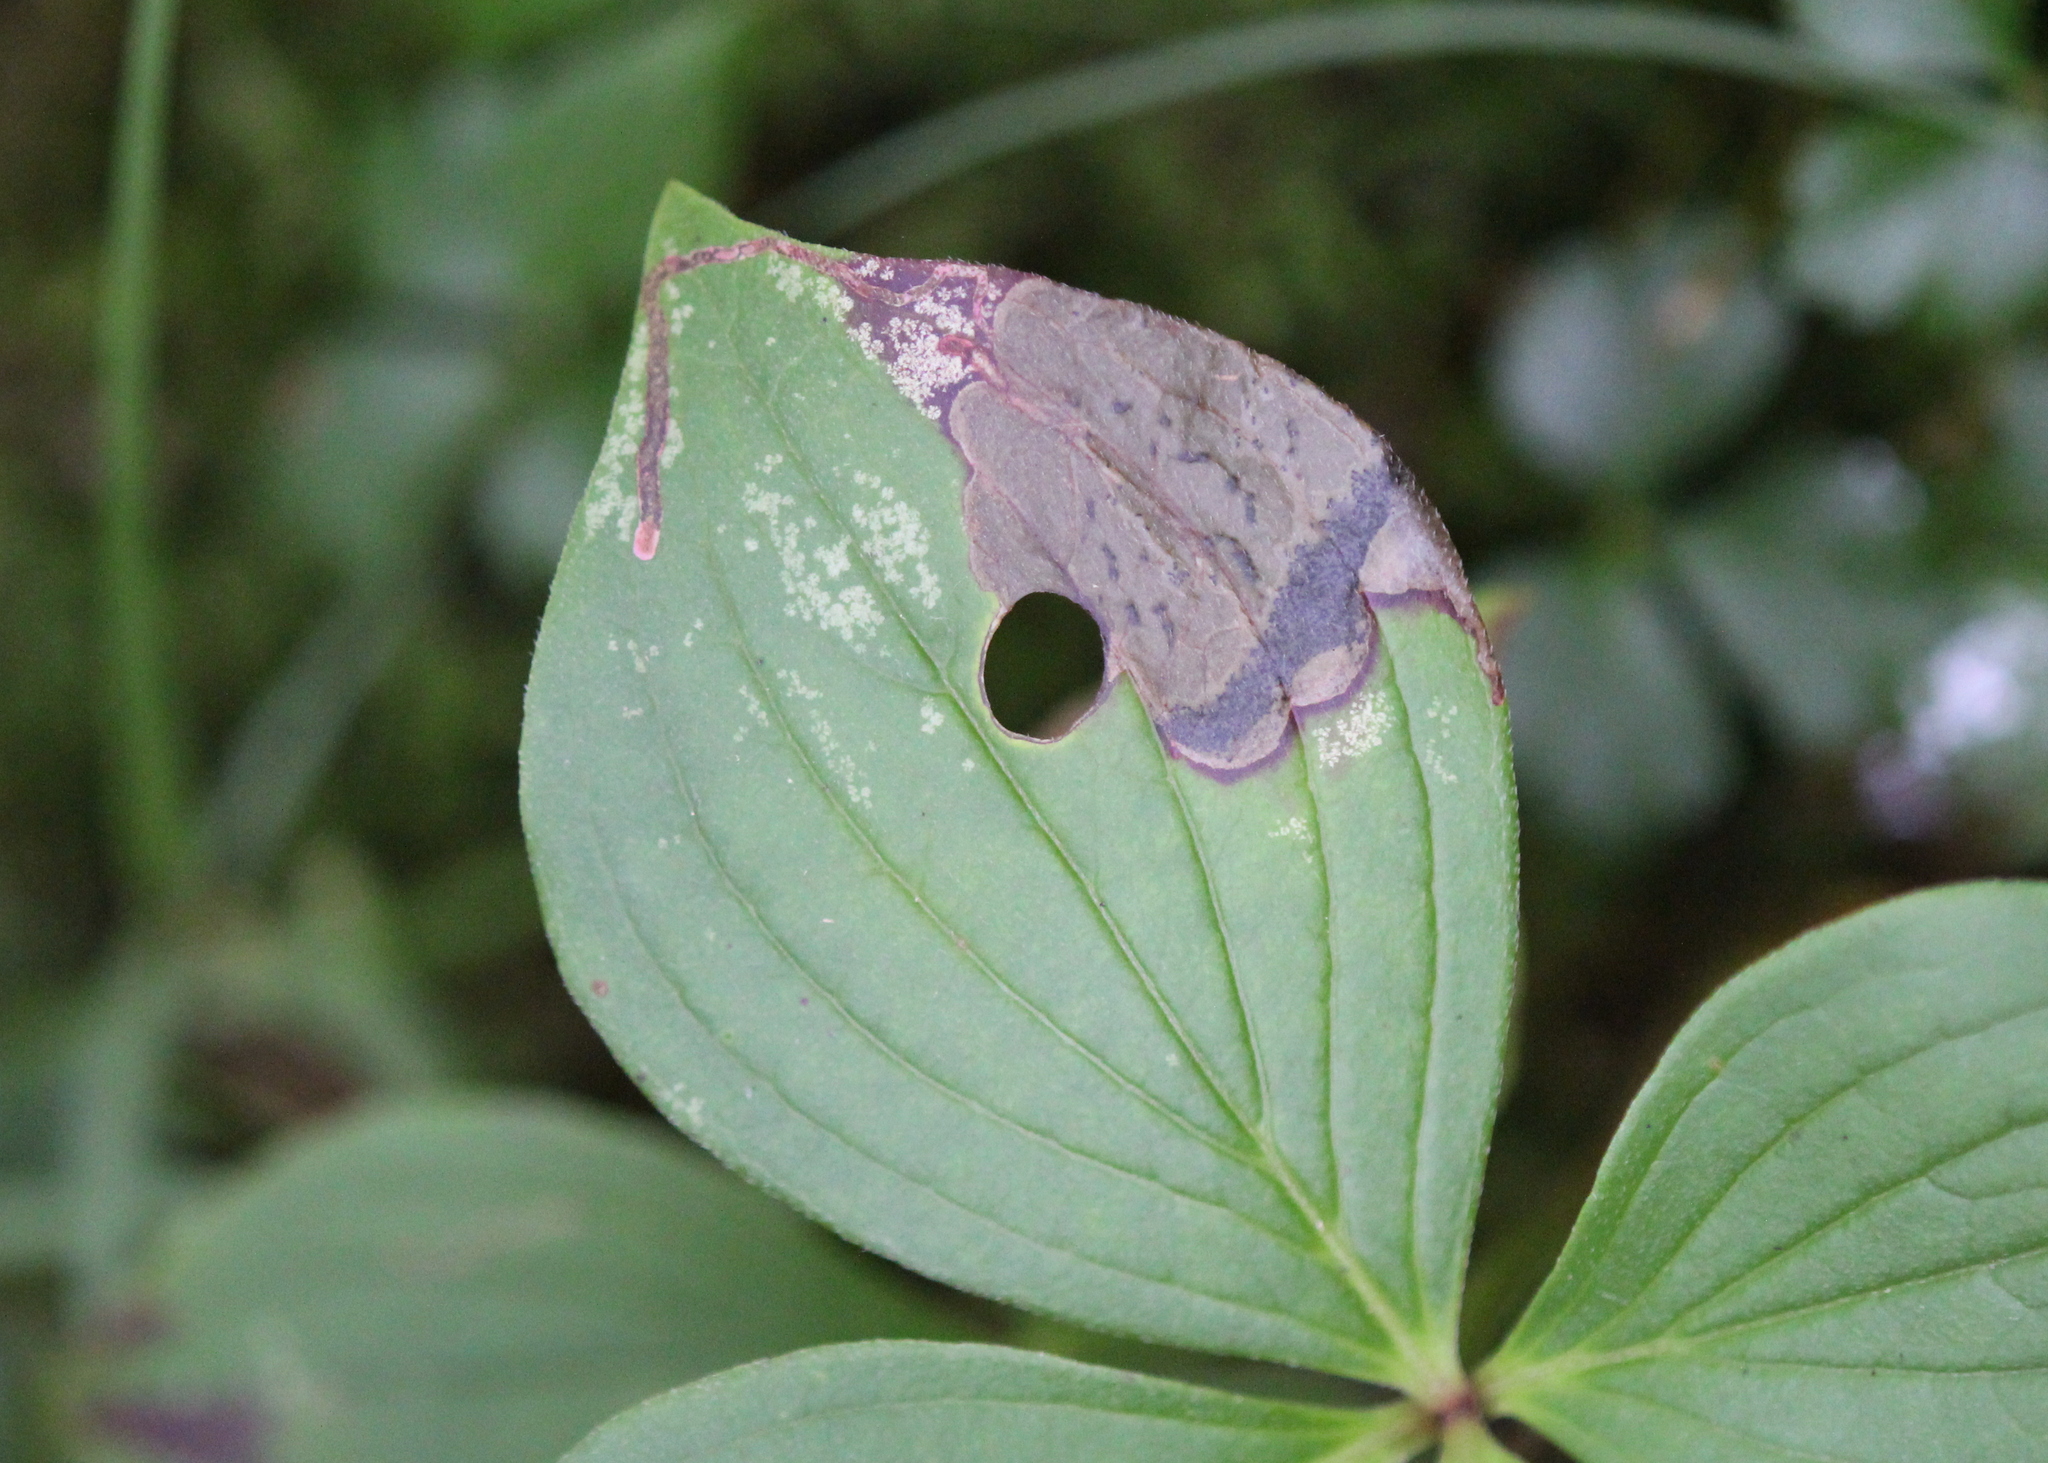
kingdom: Animalia
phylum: Arthropoda
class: Insecta
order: Lepidoptera
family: Heliozelidae
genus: Antispila
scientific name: Antispila freemani
